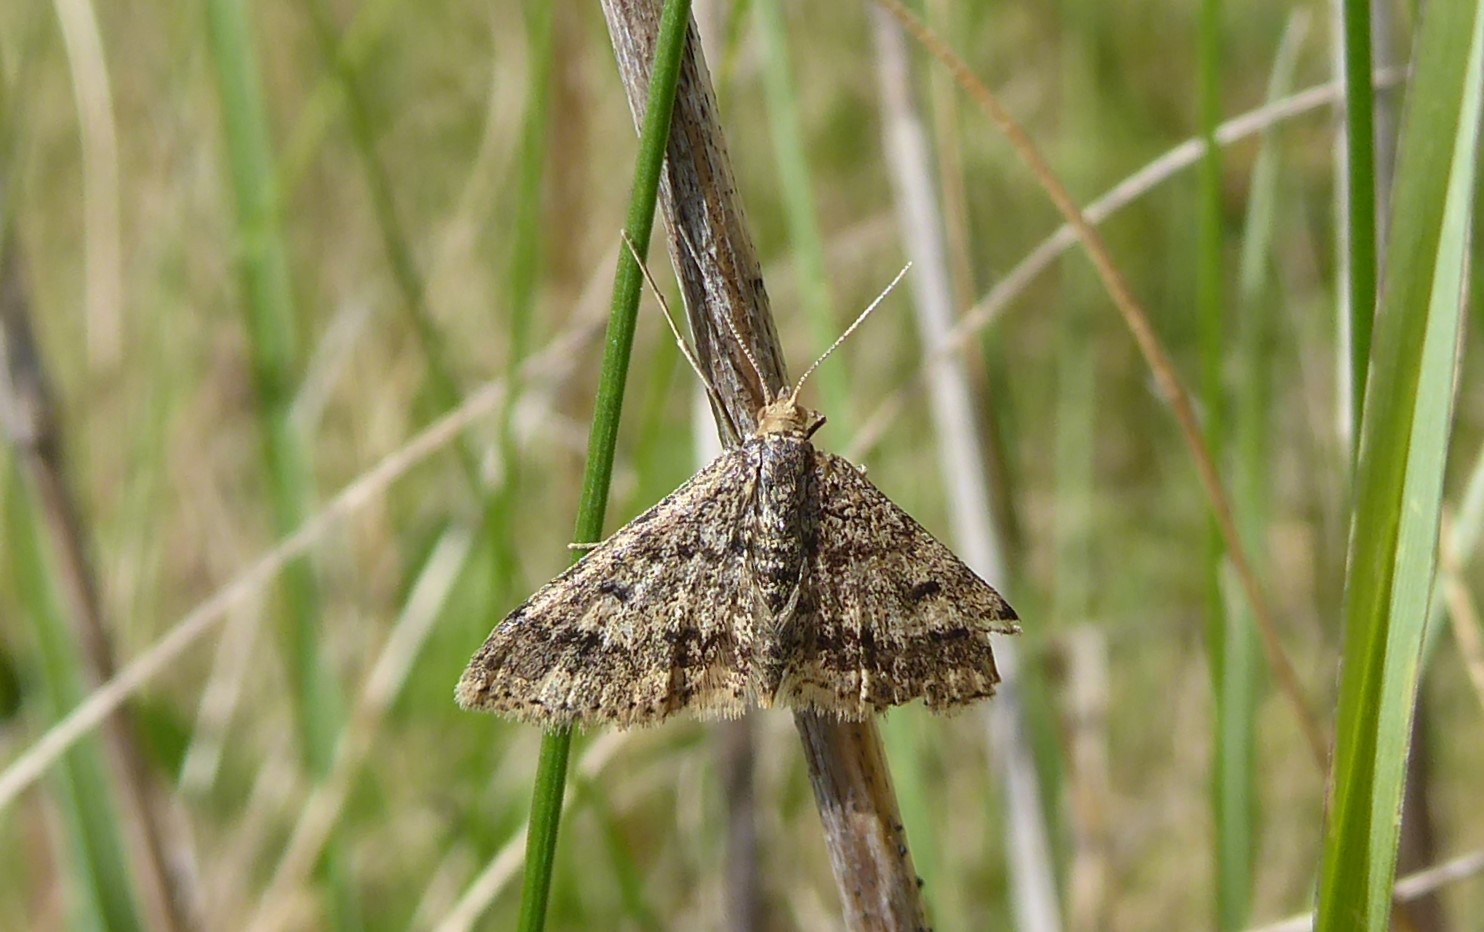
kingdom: Animalia
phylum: Arthropoda
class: Insecta
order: Lepidoptera
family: Geometridae
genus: Scopula
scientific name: Scopula rubraria
